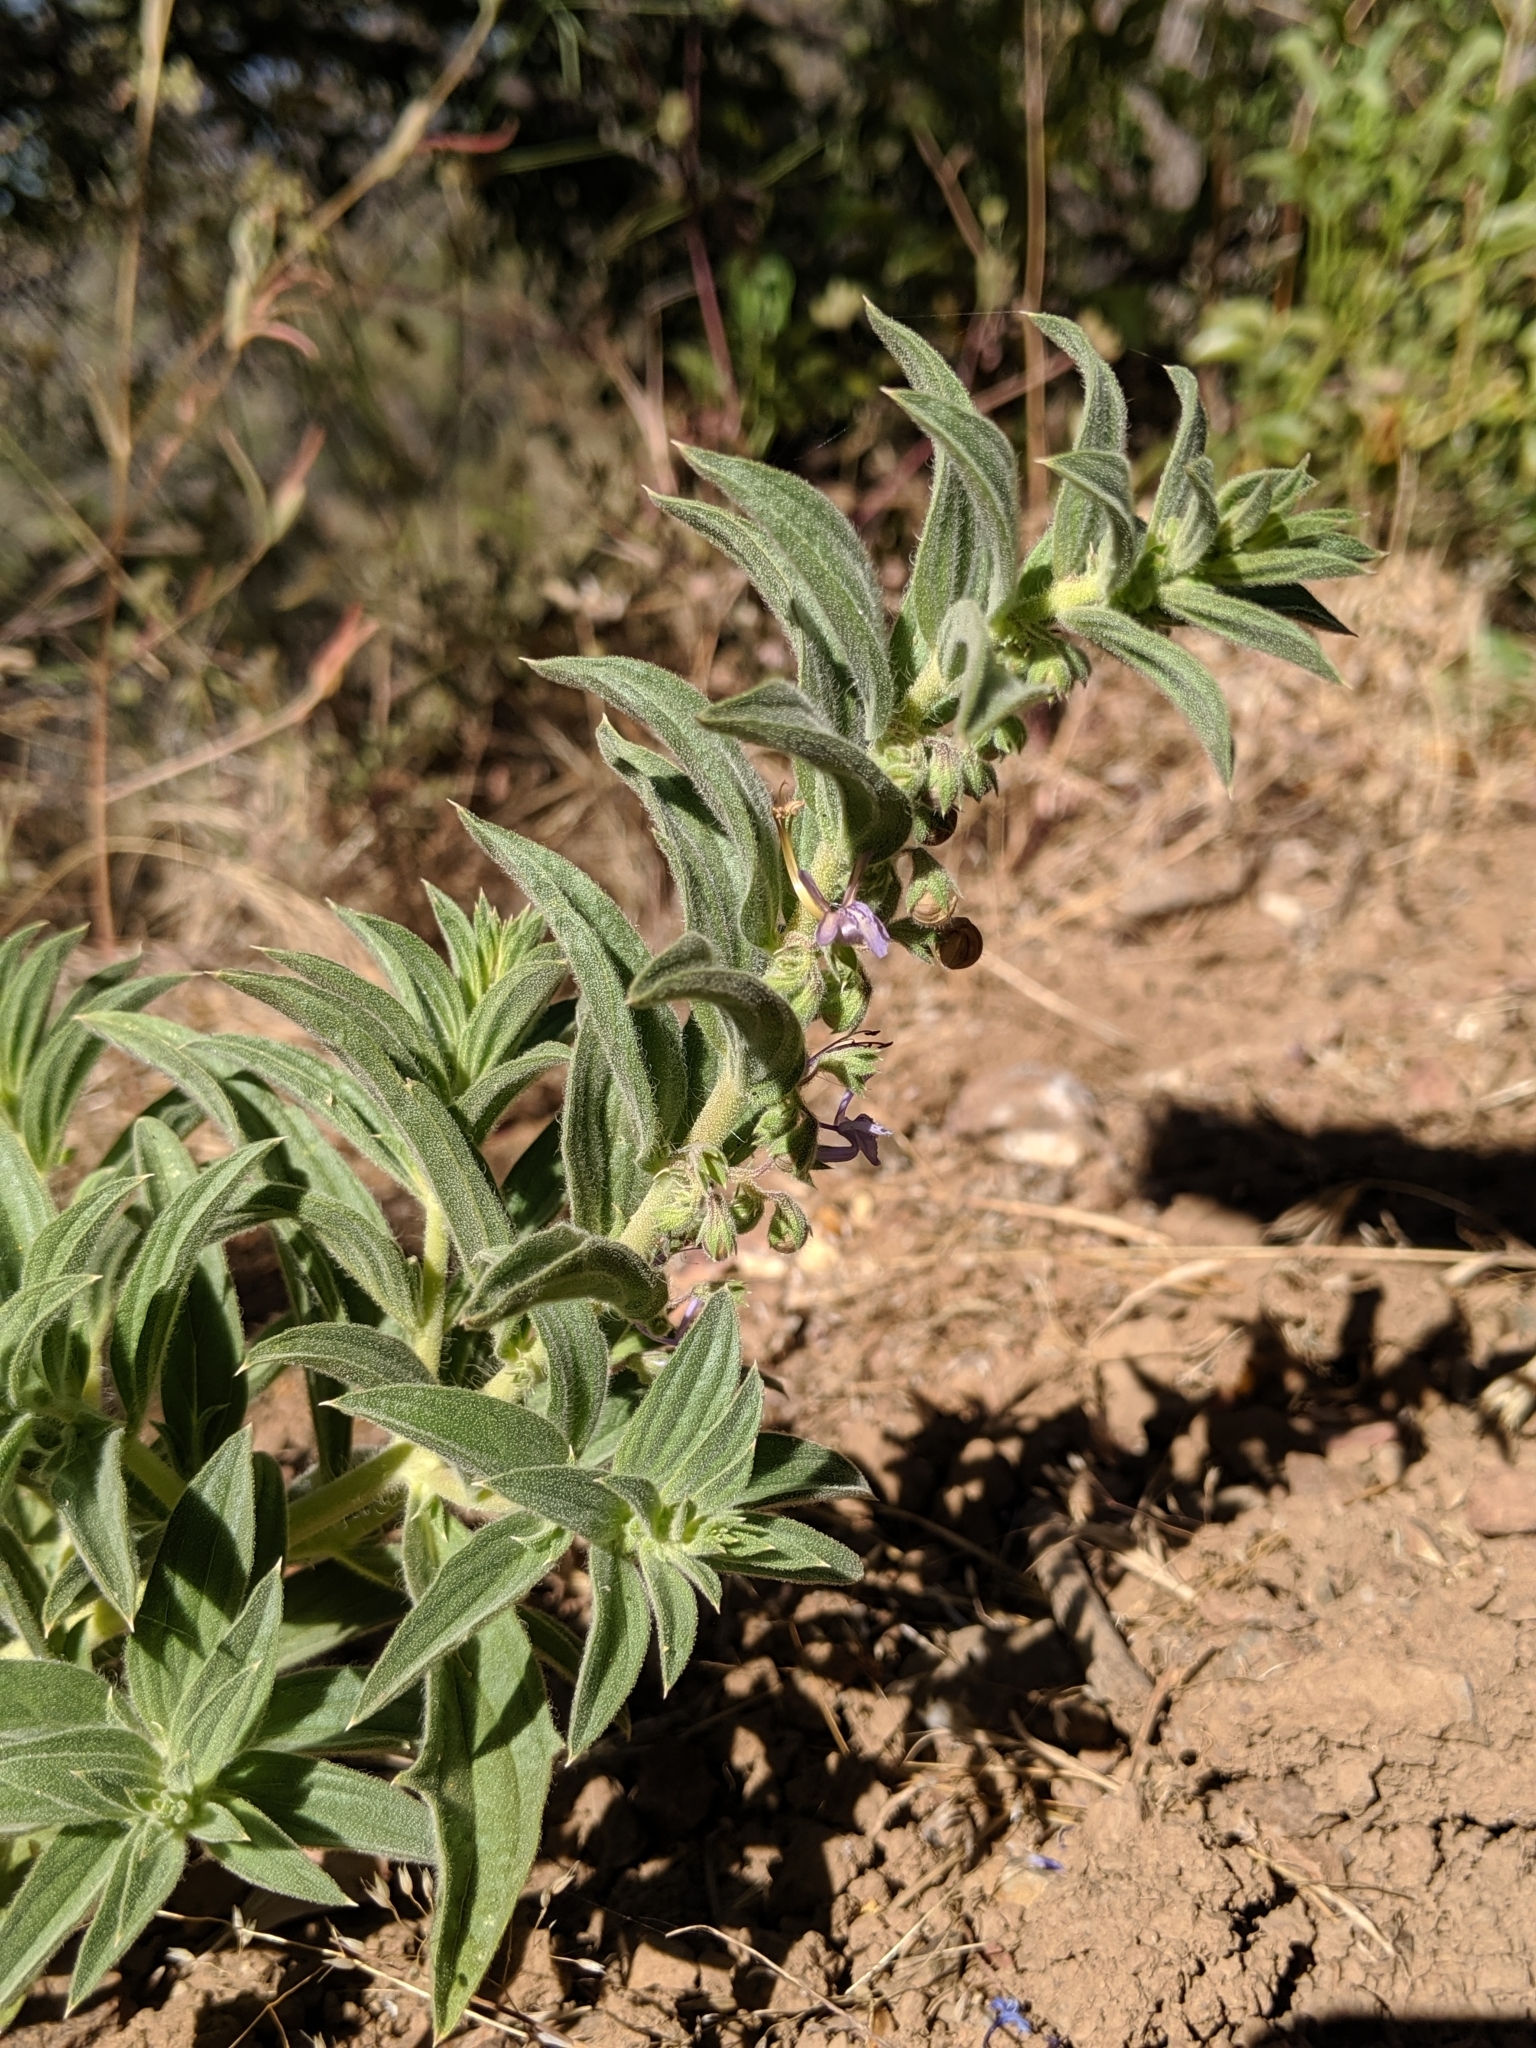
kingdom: Plantae
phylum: Tracheophyta
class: Magnoliopsida
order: Lamiales
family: Lamiaceae
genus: Trichostema
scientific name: Trichostema lanceolatum
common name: Vinegar-weed
